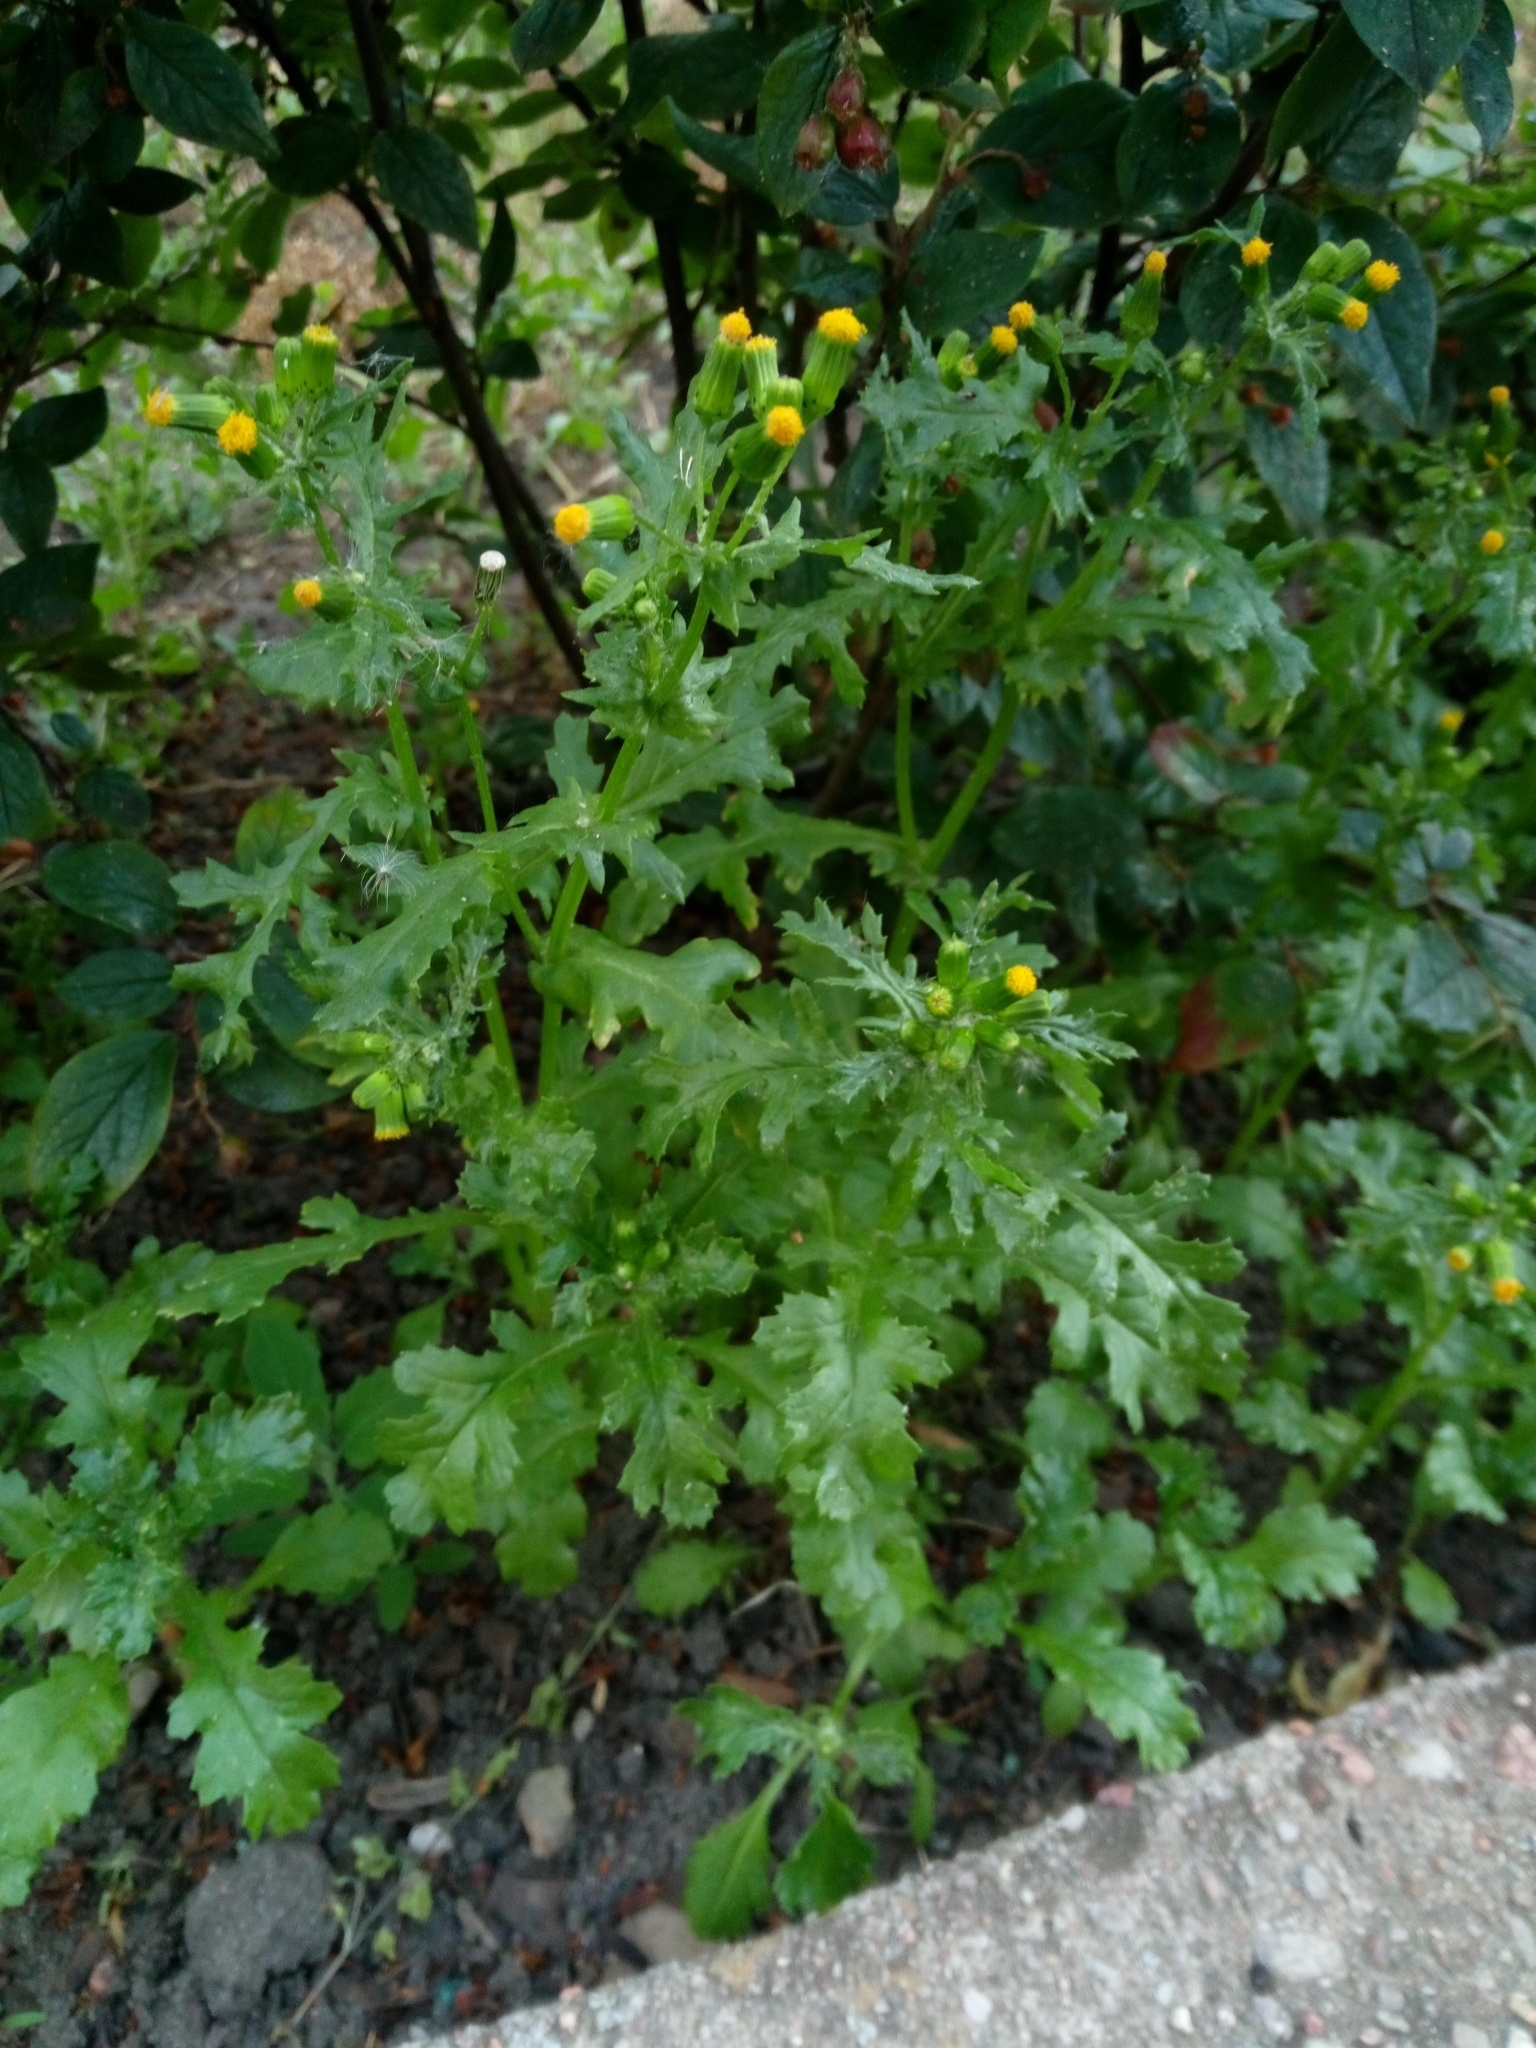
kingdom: Plantae
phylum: Tracheophyta
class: Magnoliopsida
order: Asterales
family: Asteraceae
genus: Senecio
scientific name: Senecio vulgaris
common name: Old-man-in-the-spring
